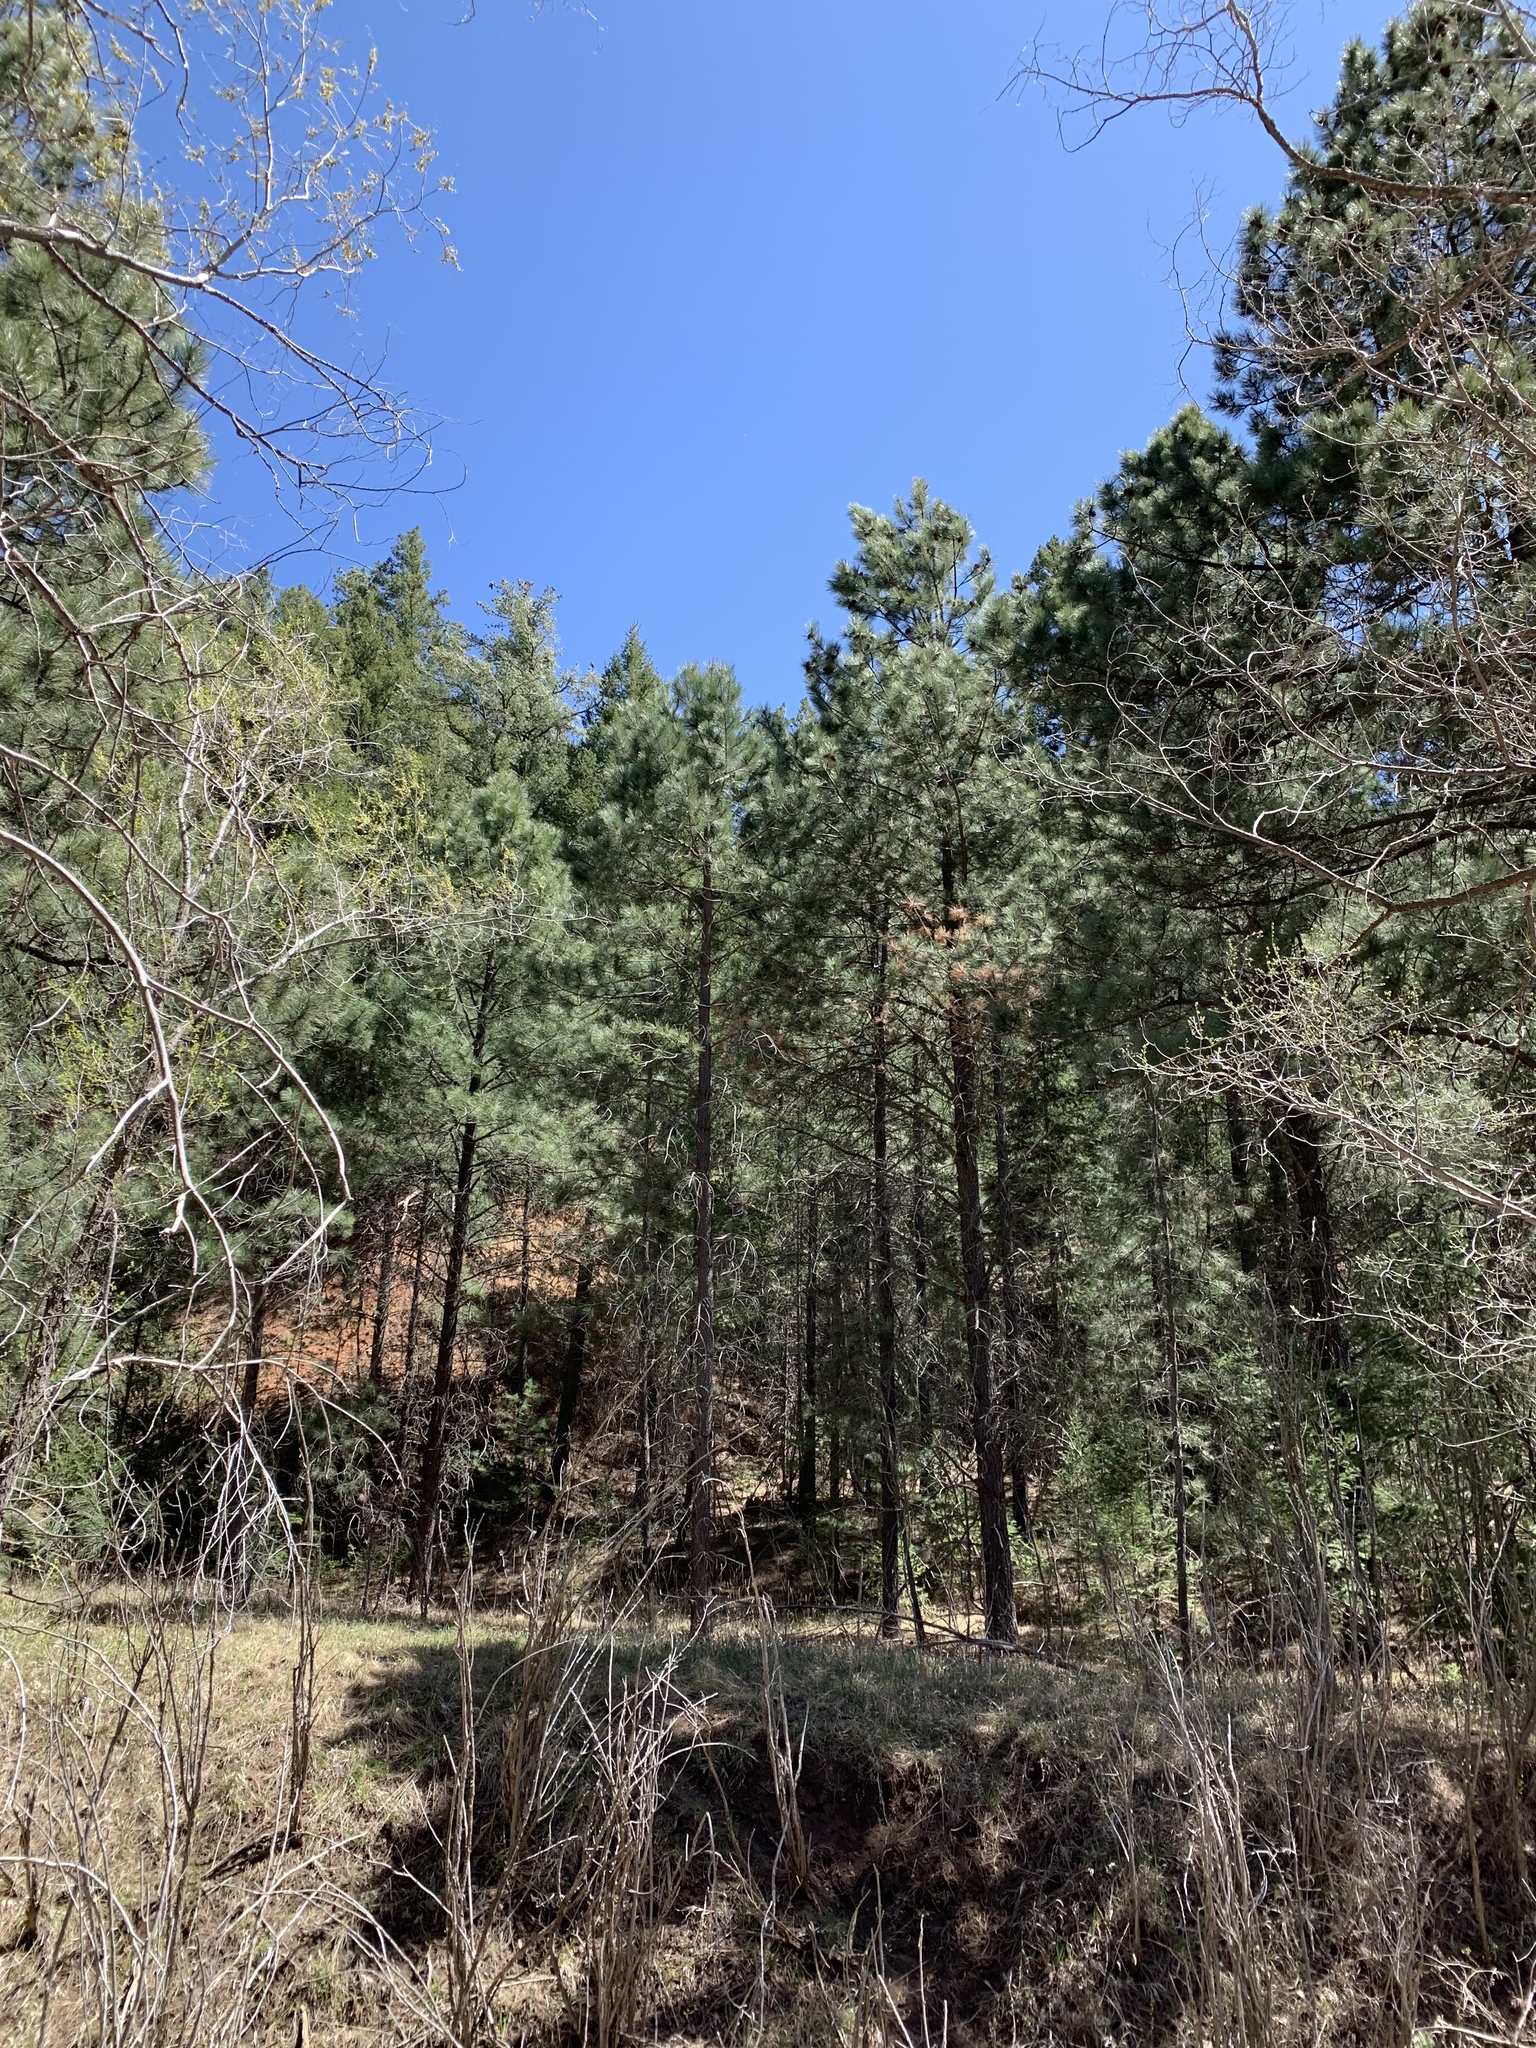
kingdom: Plantae
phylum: Tracheophyta
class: Pinopsida
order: Pinales
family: Pinaceae
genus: Pinus
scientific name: Pinus ponderosa
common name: Western yellow-pine
